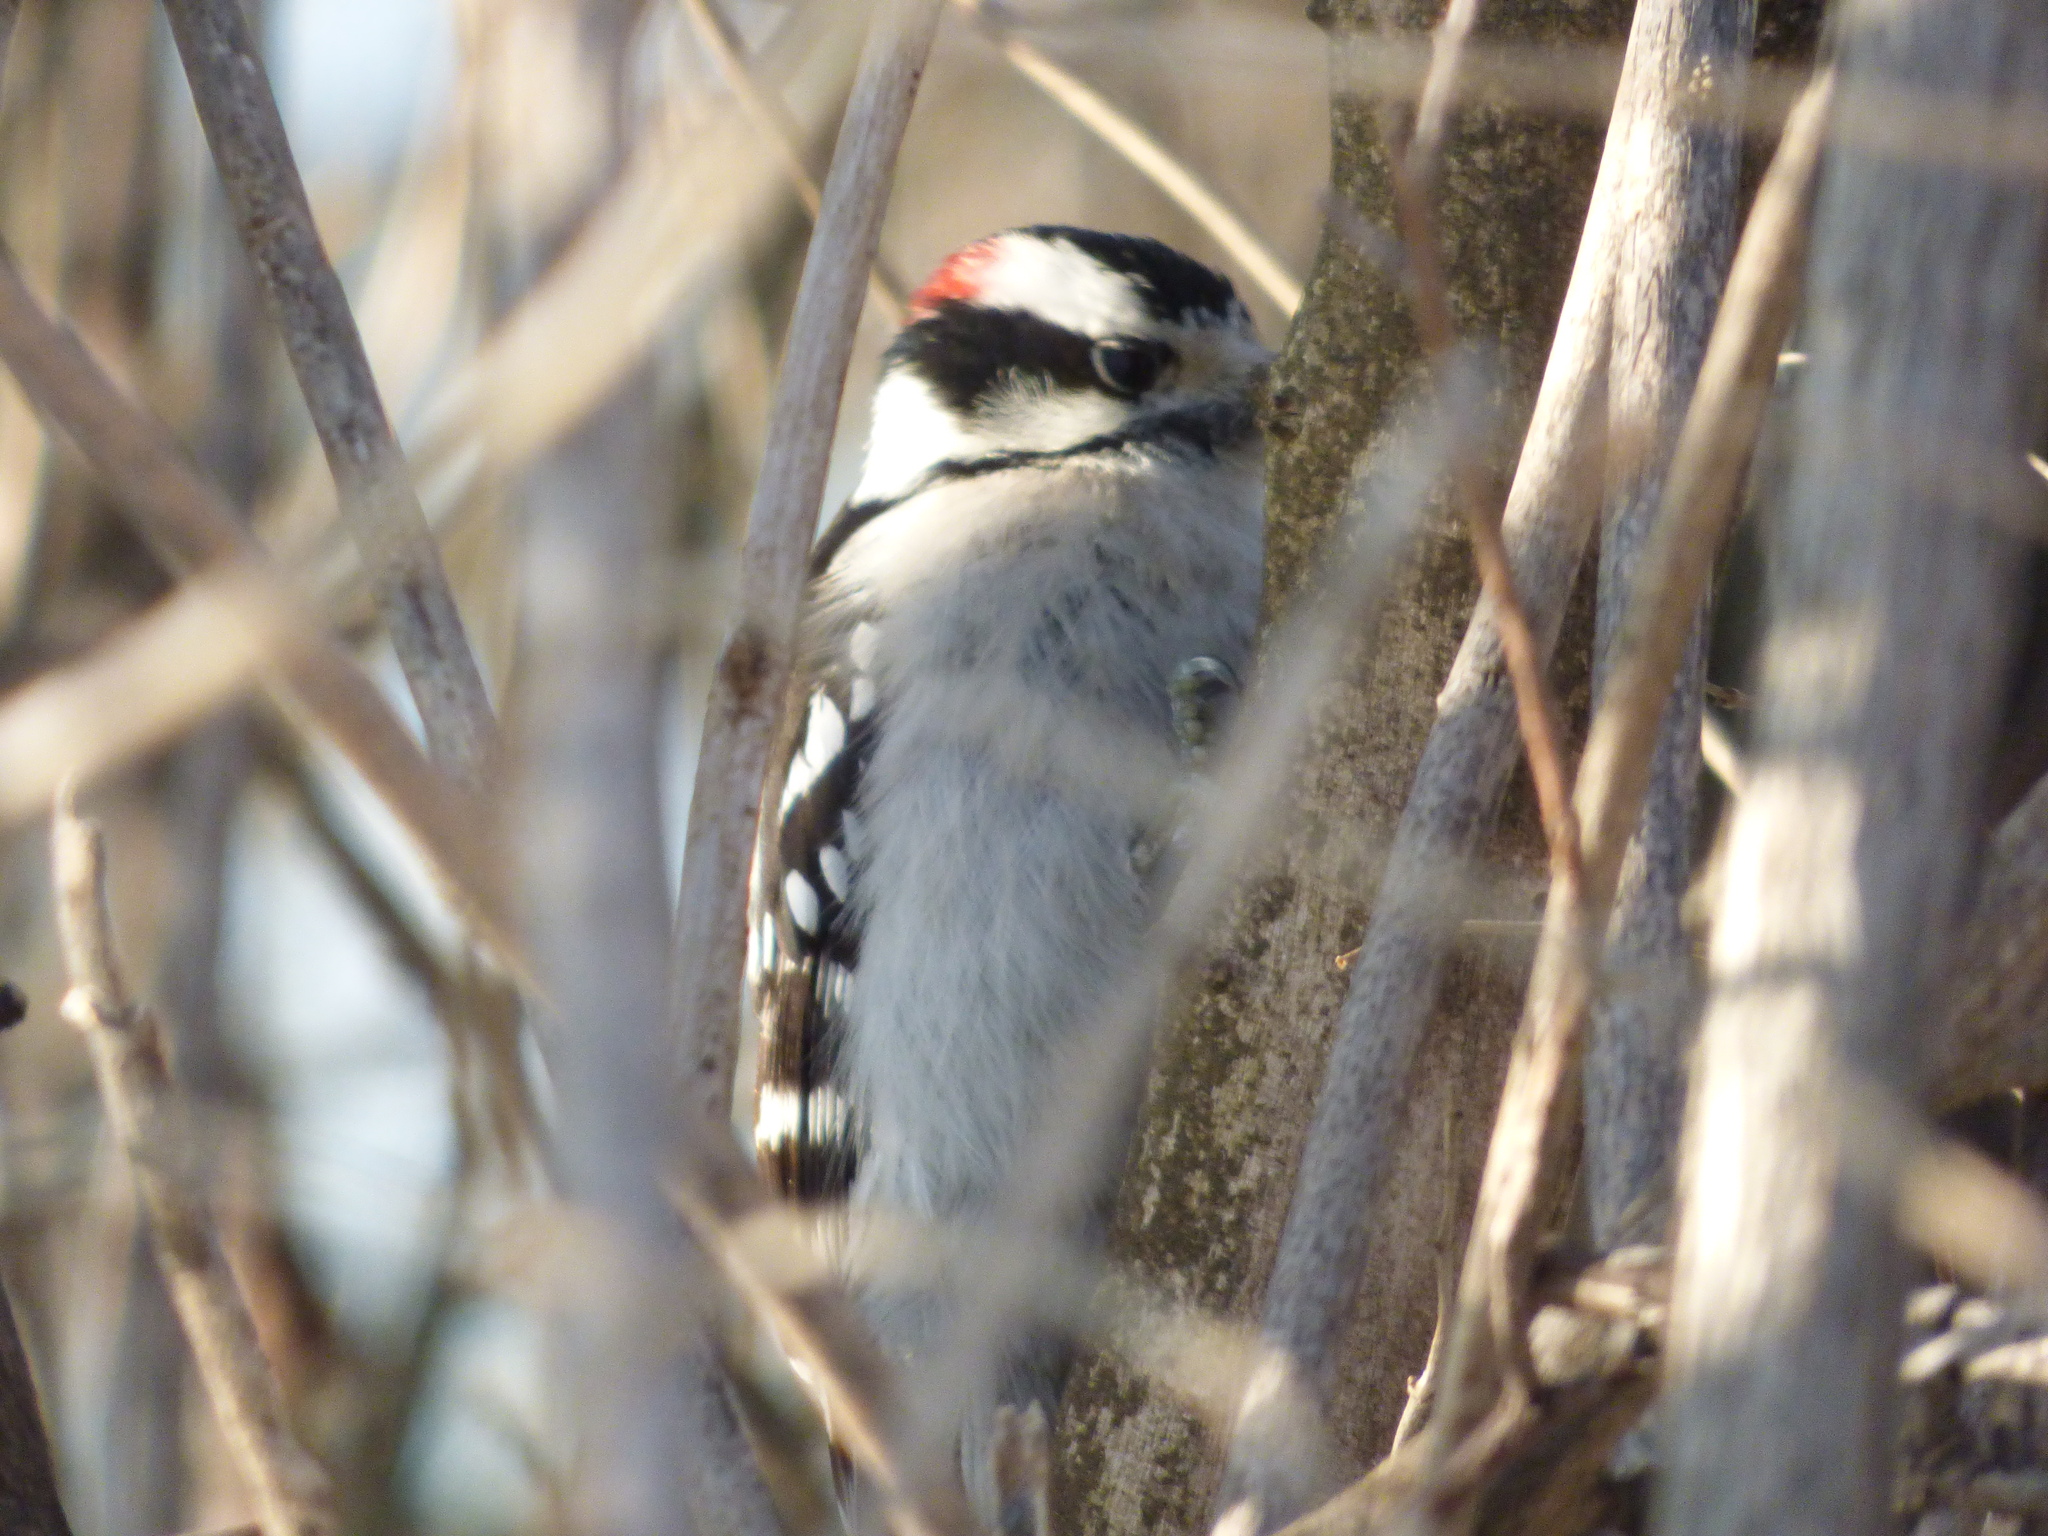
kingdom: Animalia
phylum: Chordata
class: Aves
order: Piciformes
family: Picidae
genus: Dryobates
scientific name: Dryobates pubescens
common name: Downy woodpecker
